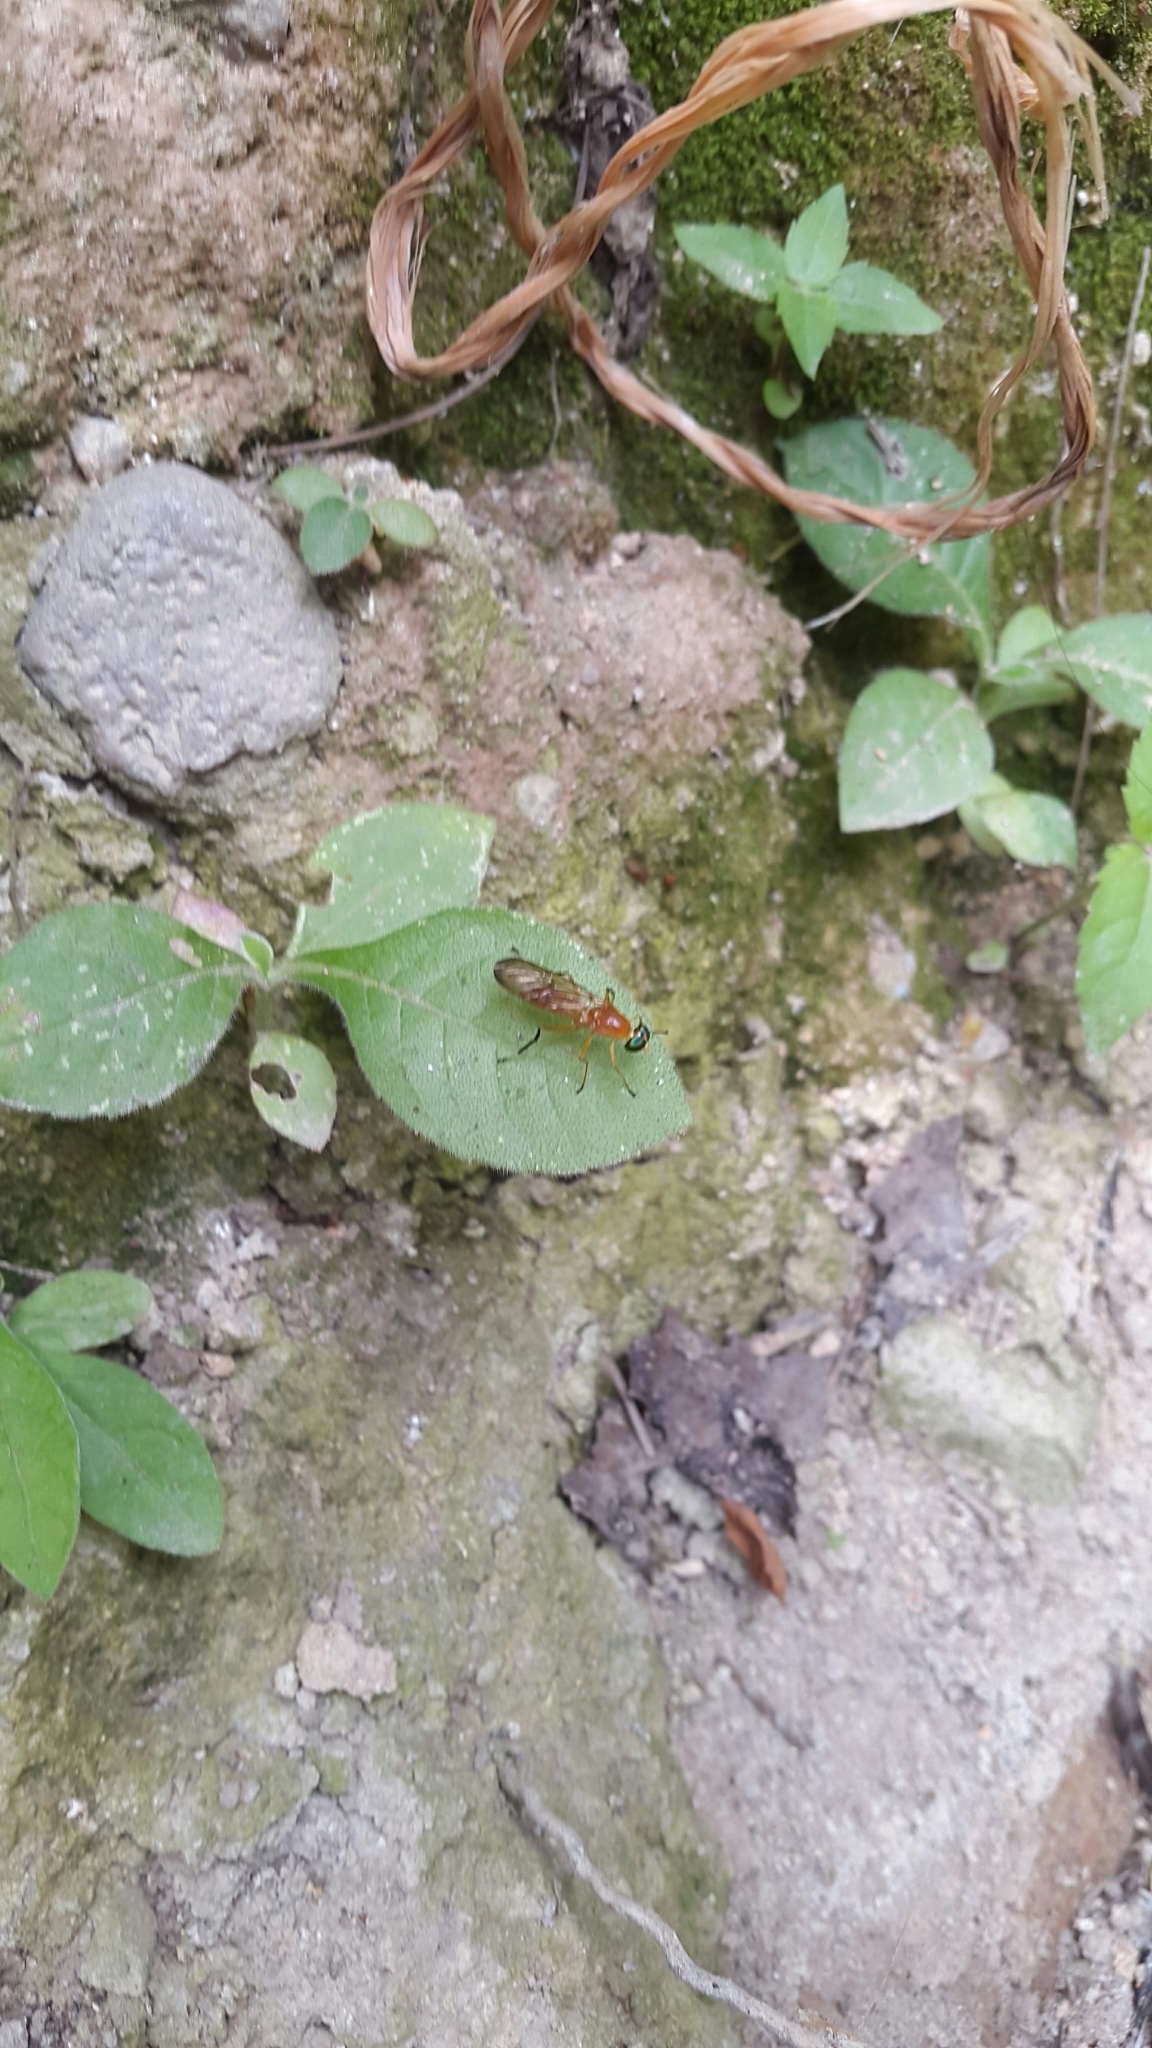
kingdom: Animalia
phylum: Arthropoda
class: Insecta
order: Diptera
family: Stratiomyidae
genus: Ptecticus
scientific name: Ptecticus testaceus
